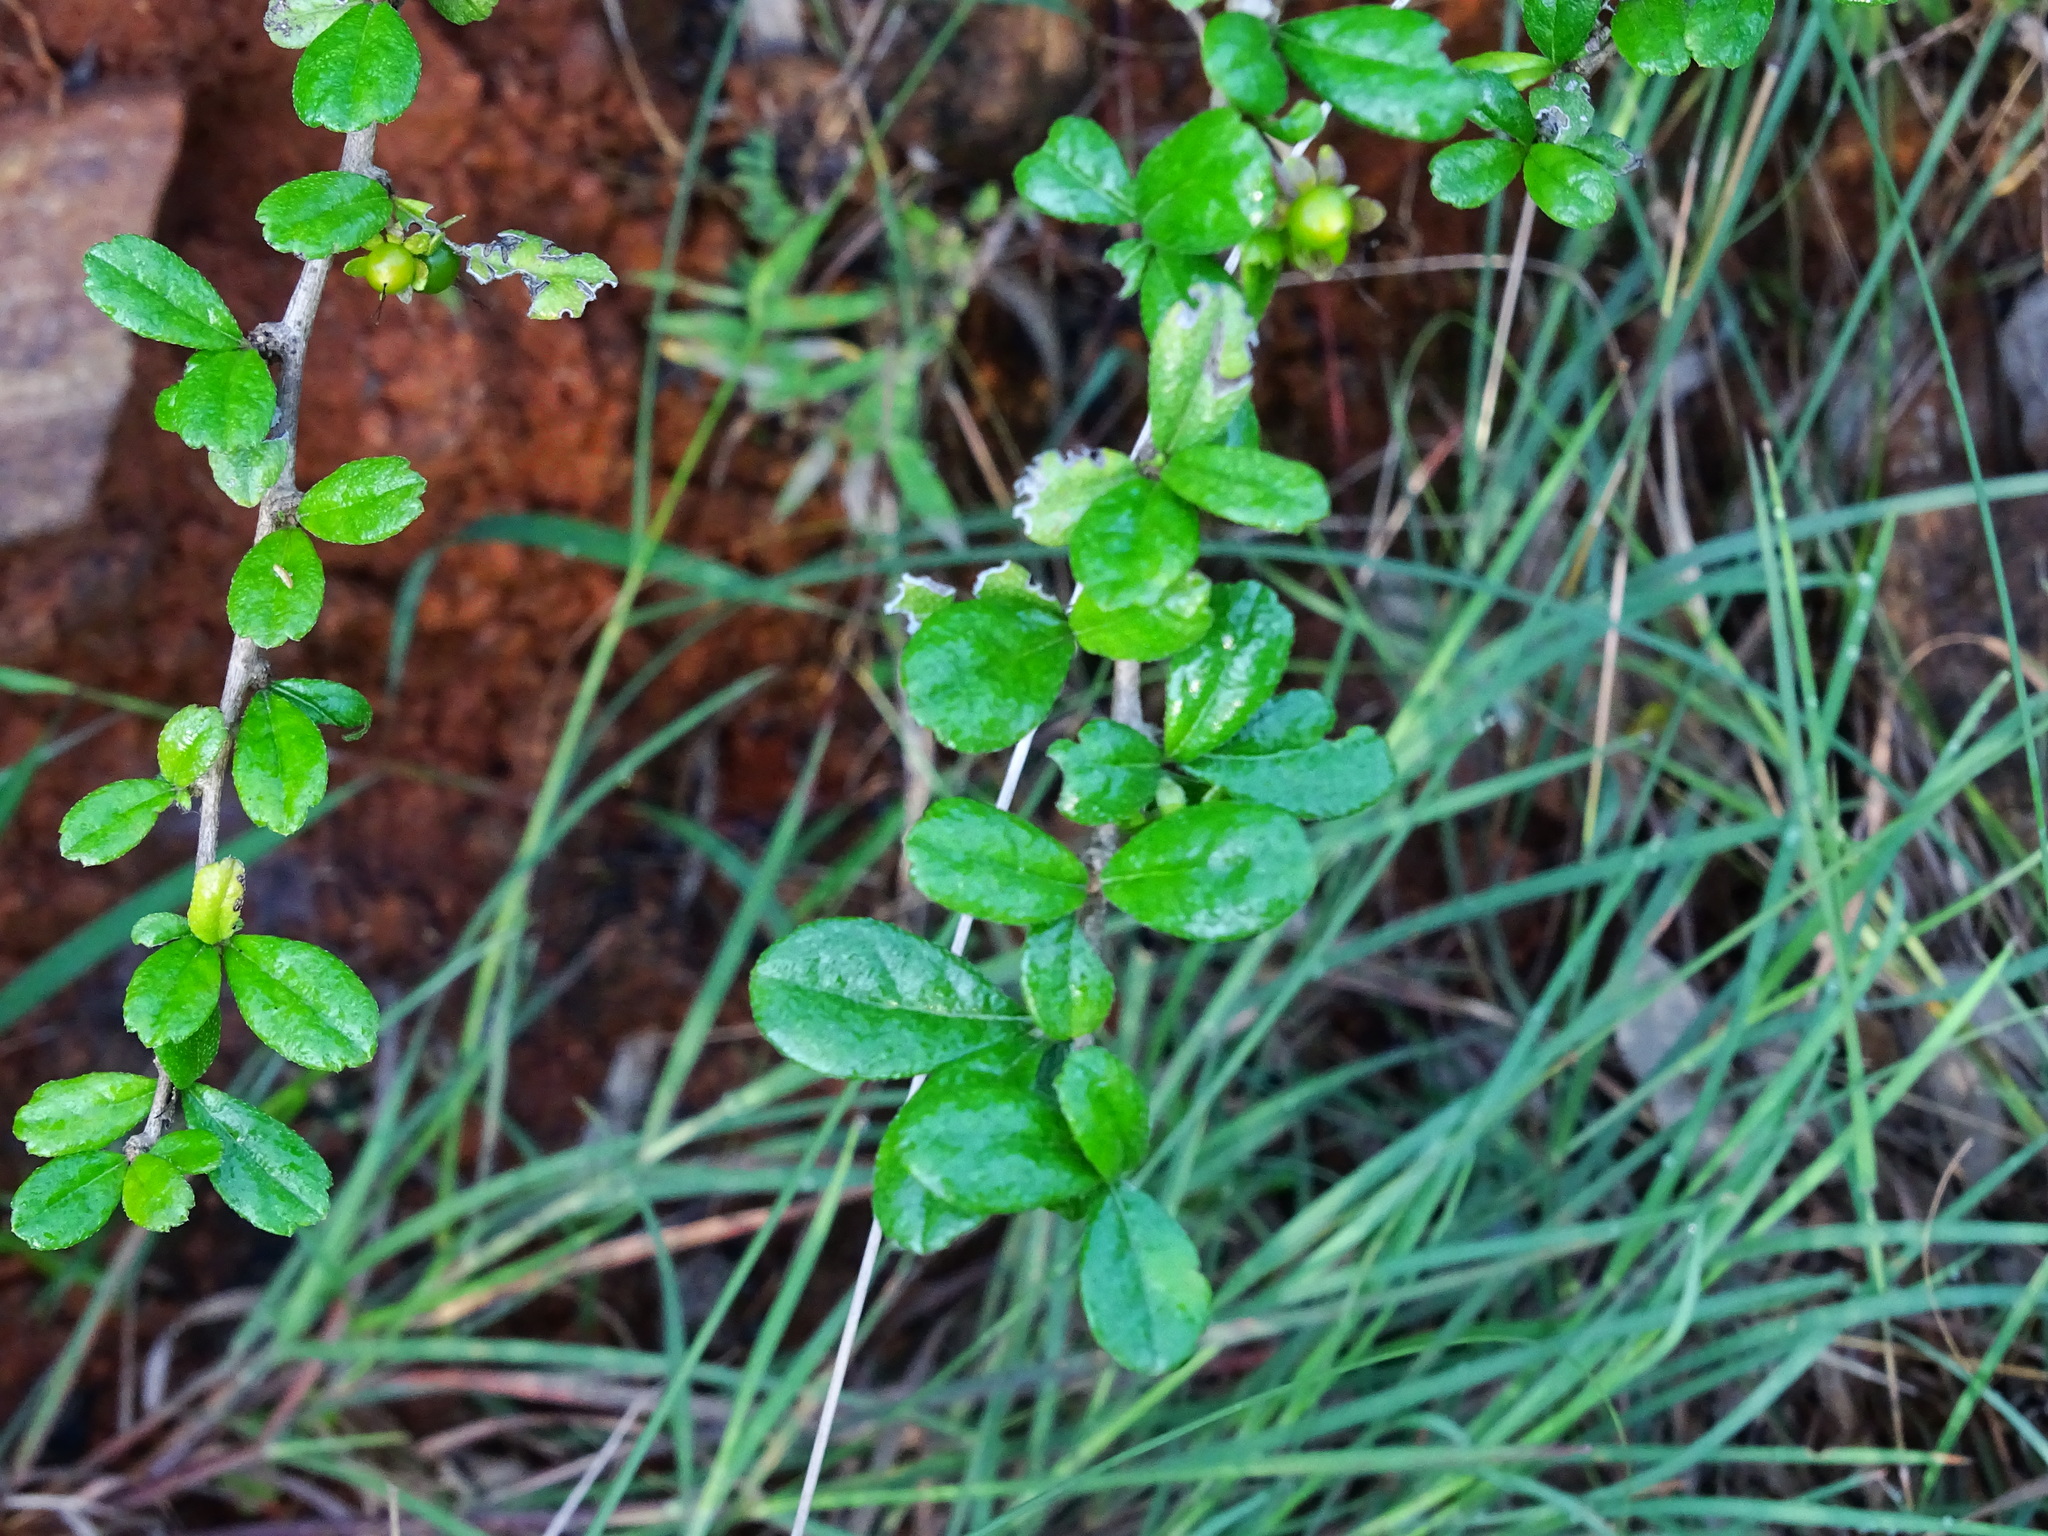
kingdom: Plantae
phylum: Tracheophyta
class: Magnoliopsida
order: Boraginales
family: Ehretiaceae
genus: Ehretia
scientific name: Ehretia microphylla
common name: Fukien-tea
